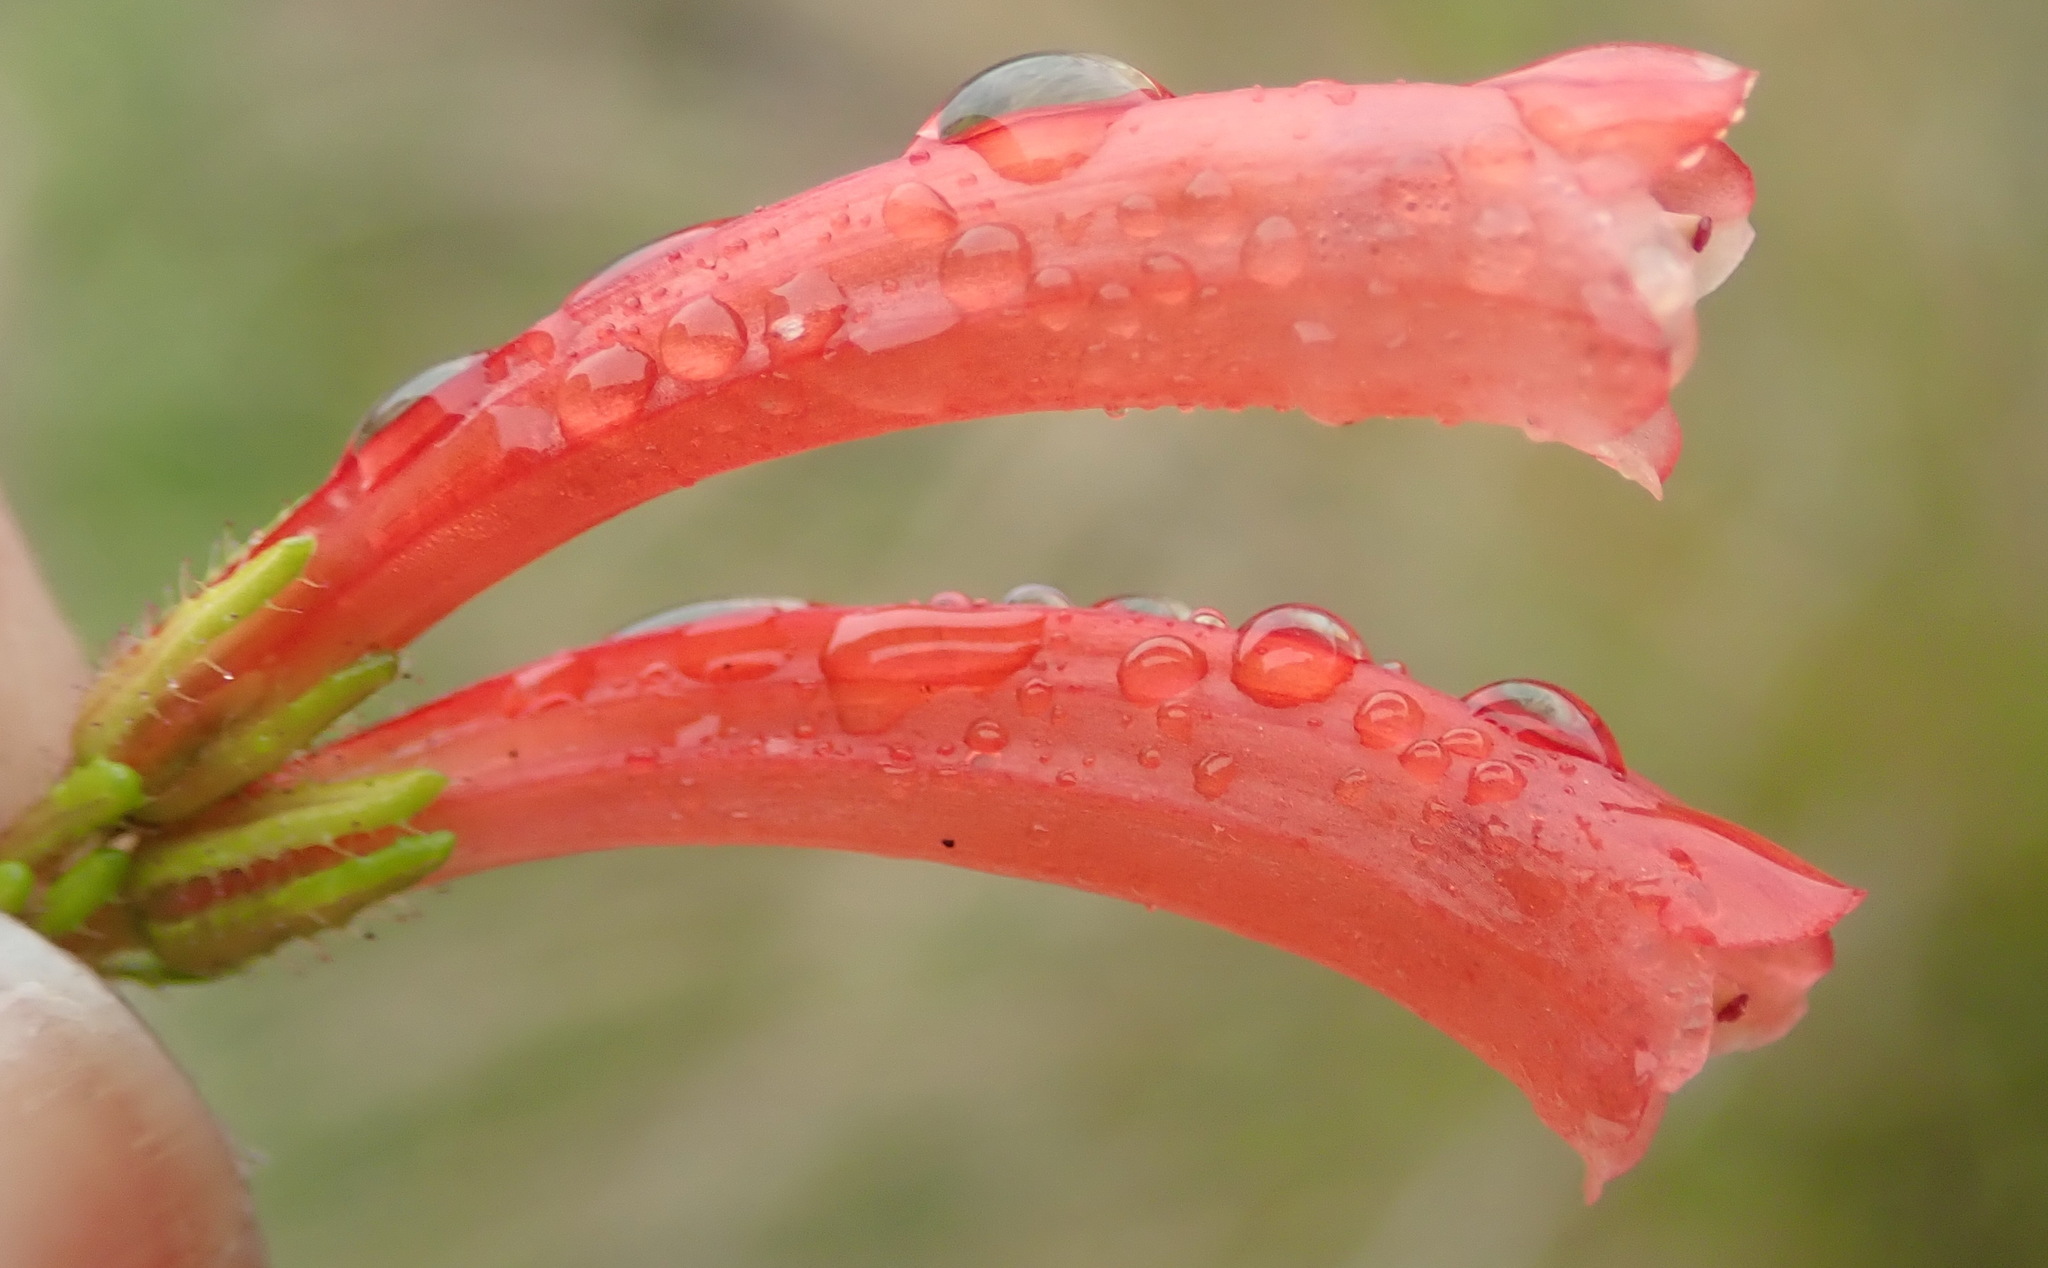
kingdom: Plantae
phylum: Tracheophyta
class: Magnoliopsida
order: Ericales
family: Ericaceae
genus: Erica
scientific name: Erica glandulosa
